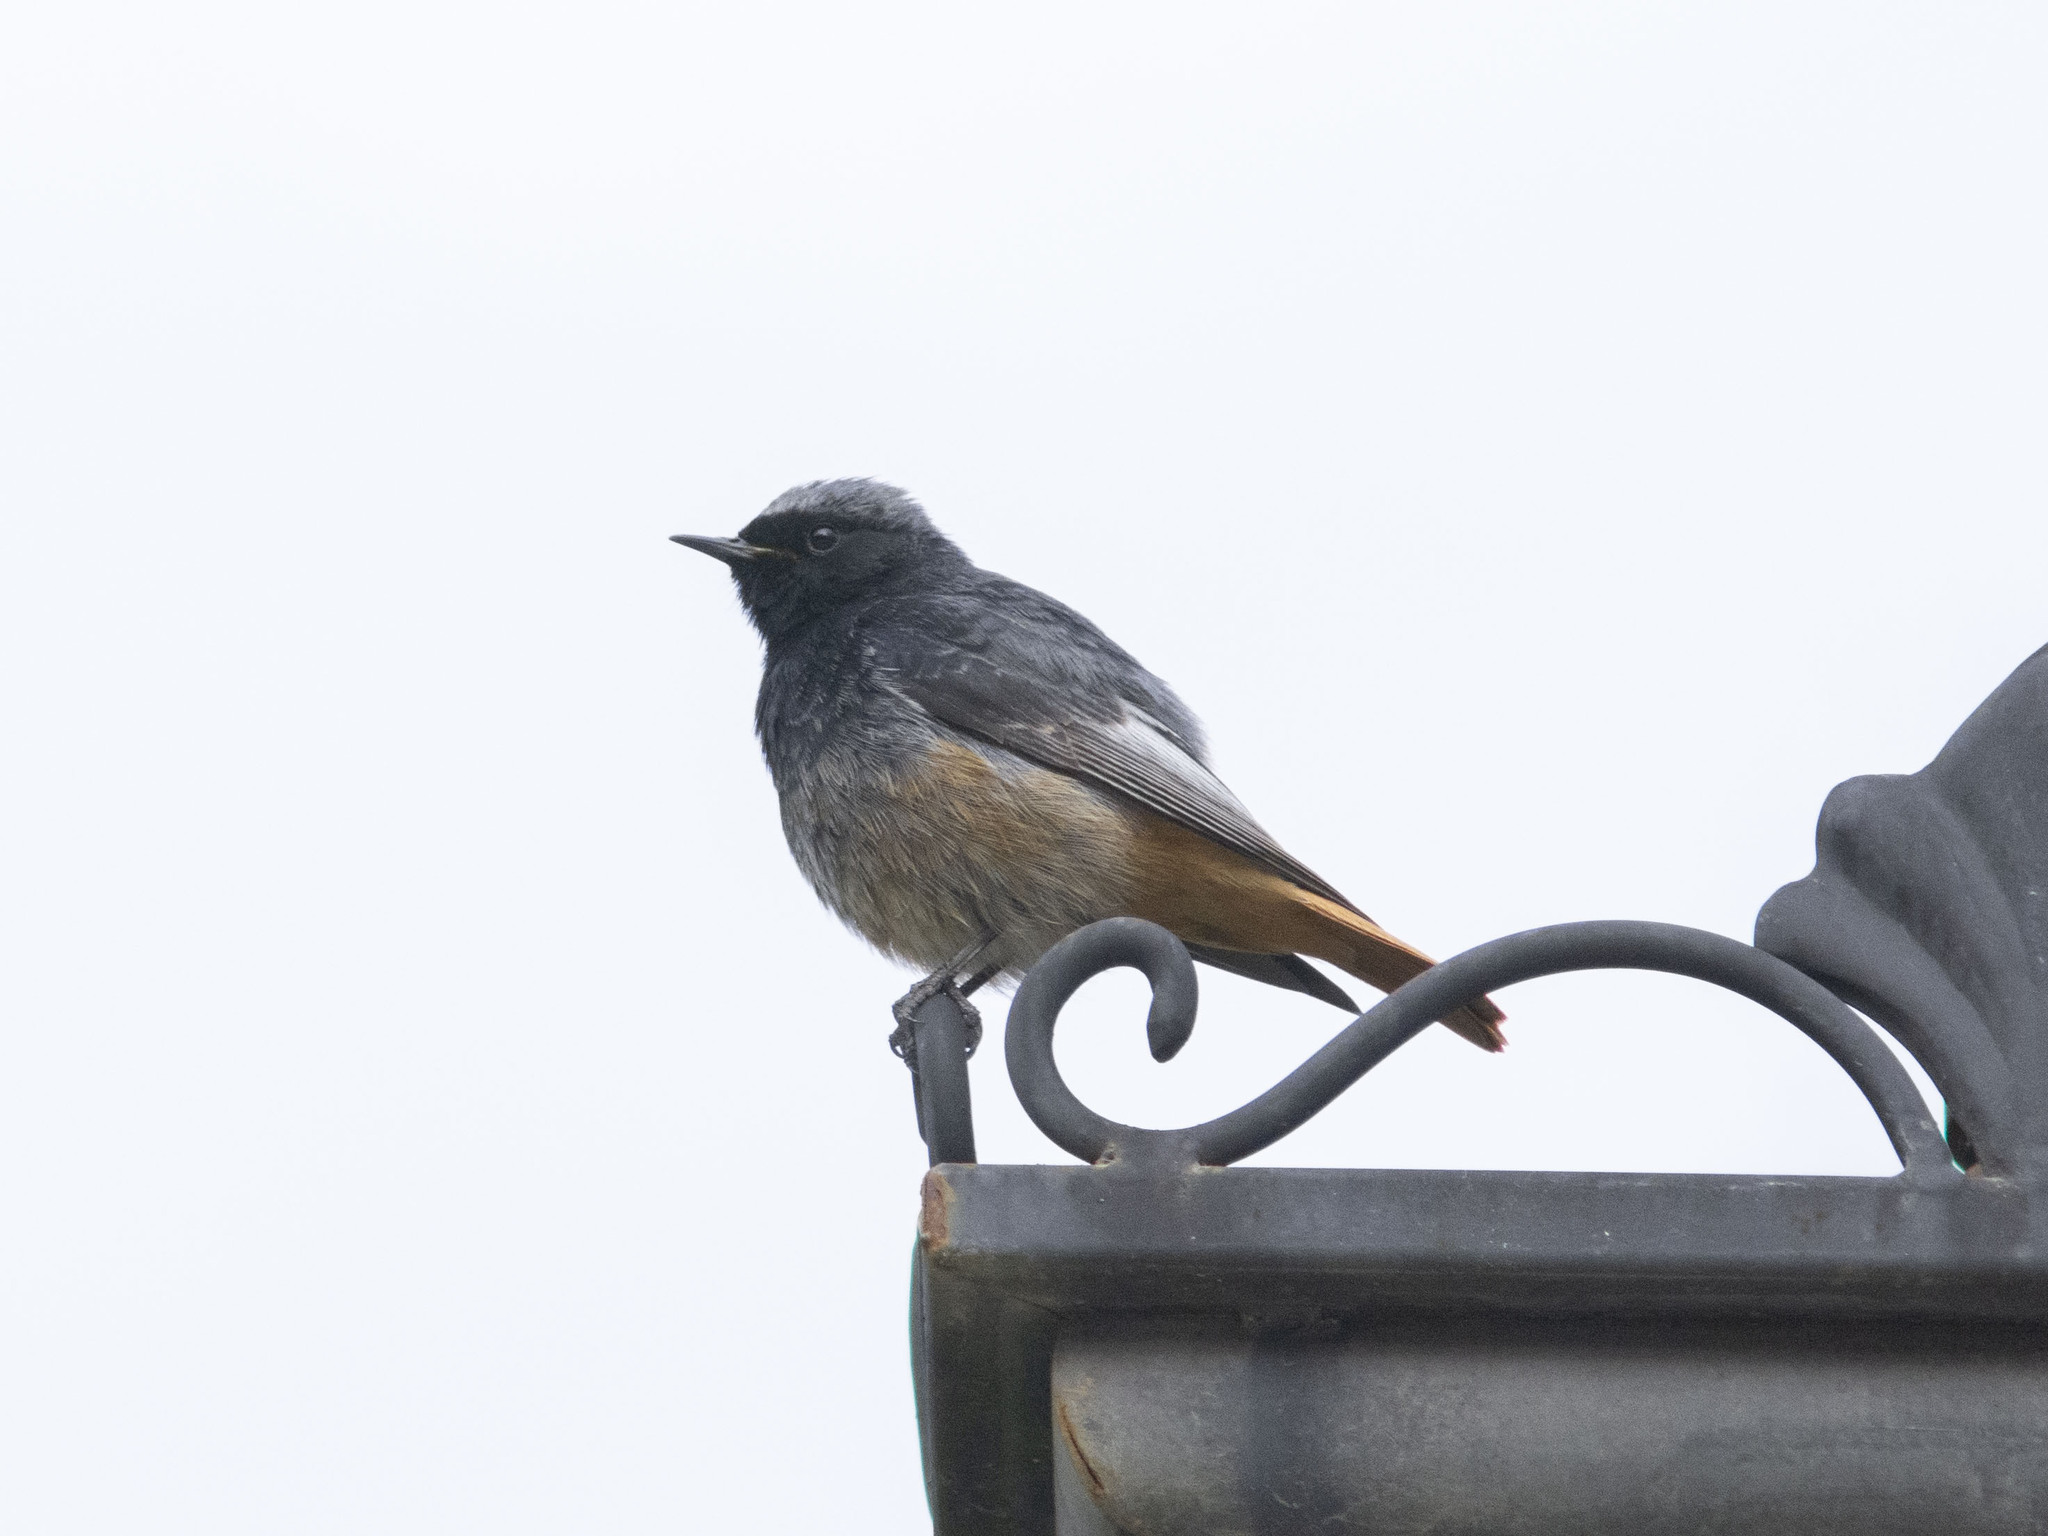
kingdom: Animalia
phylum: Chordata
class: Aves
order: Passeriformes
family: Muscicapidae
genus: Phoenicurus
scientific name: Phoenicurus ochruros
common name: Black redstart
